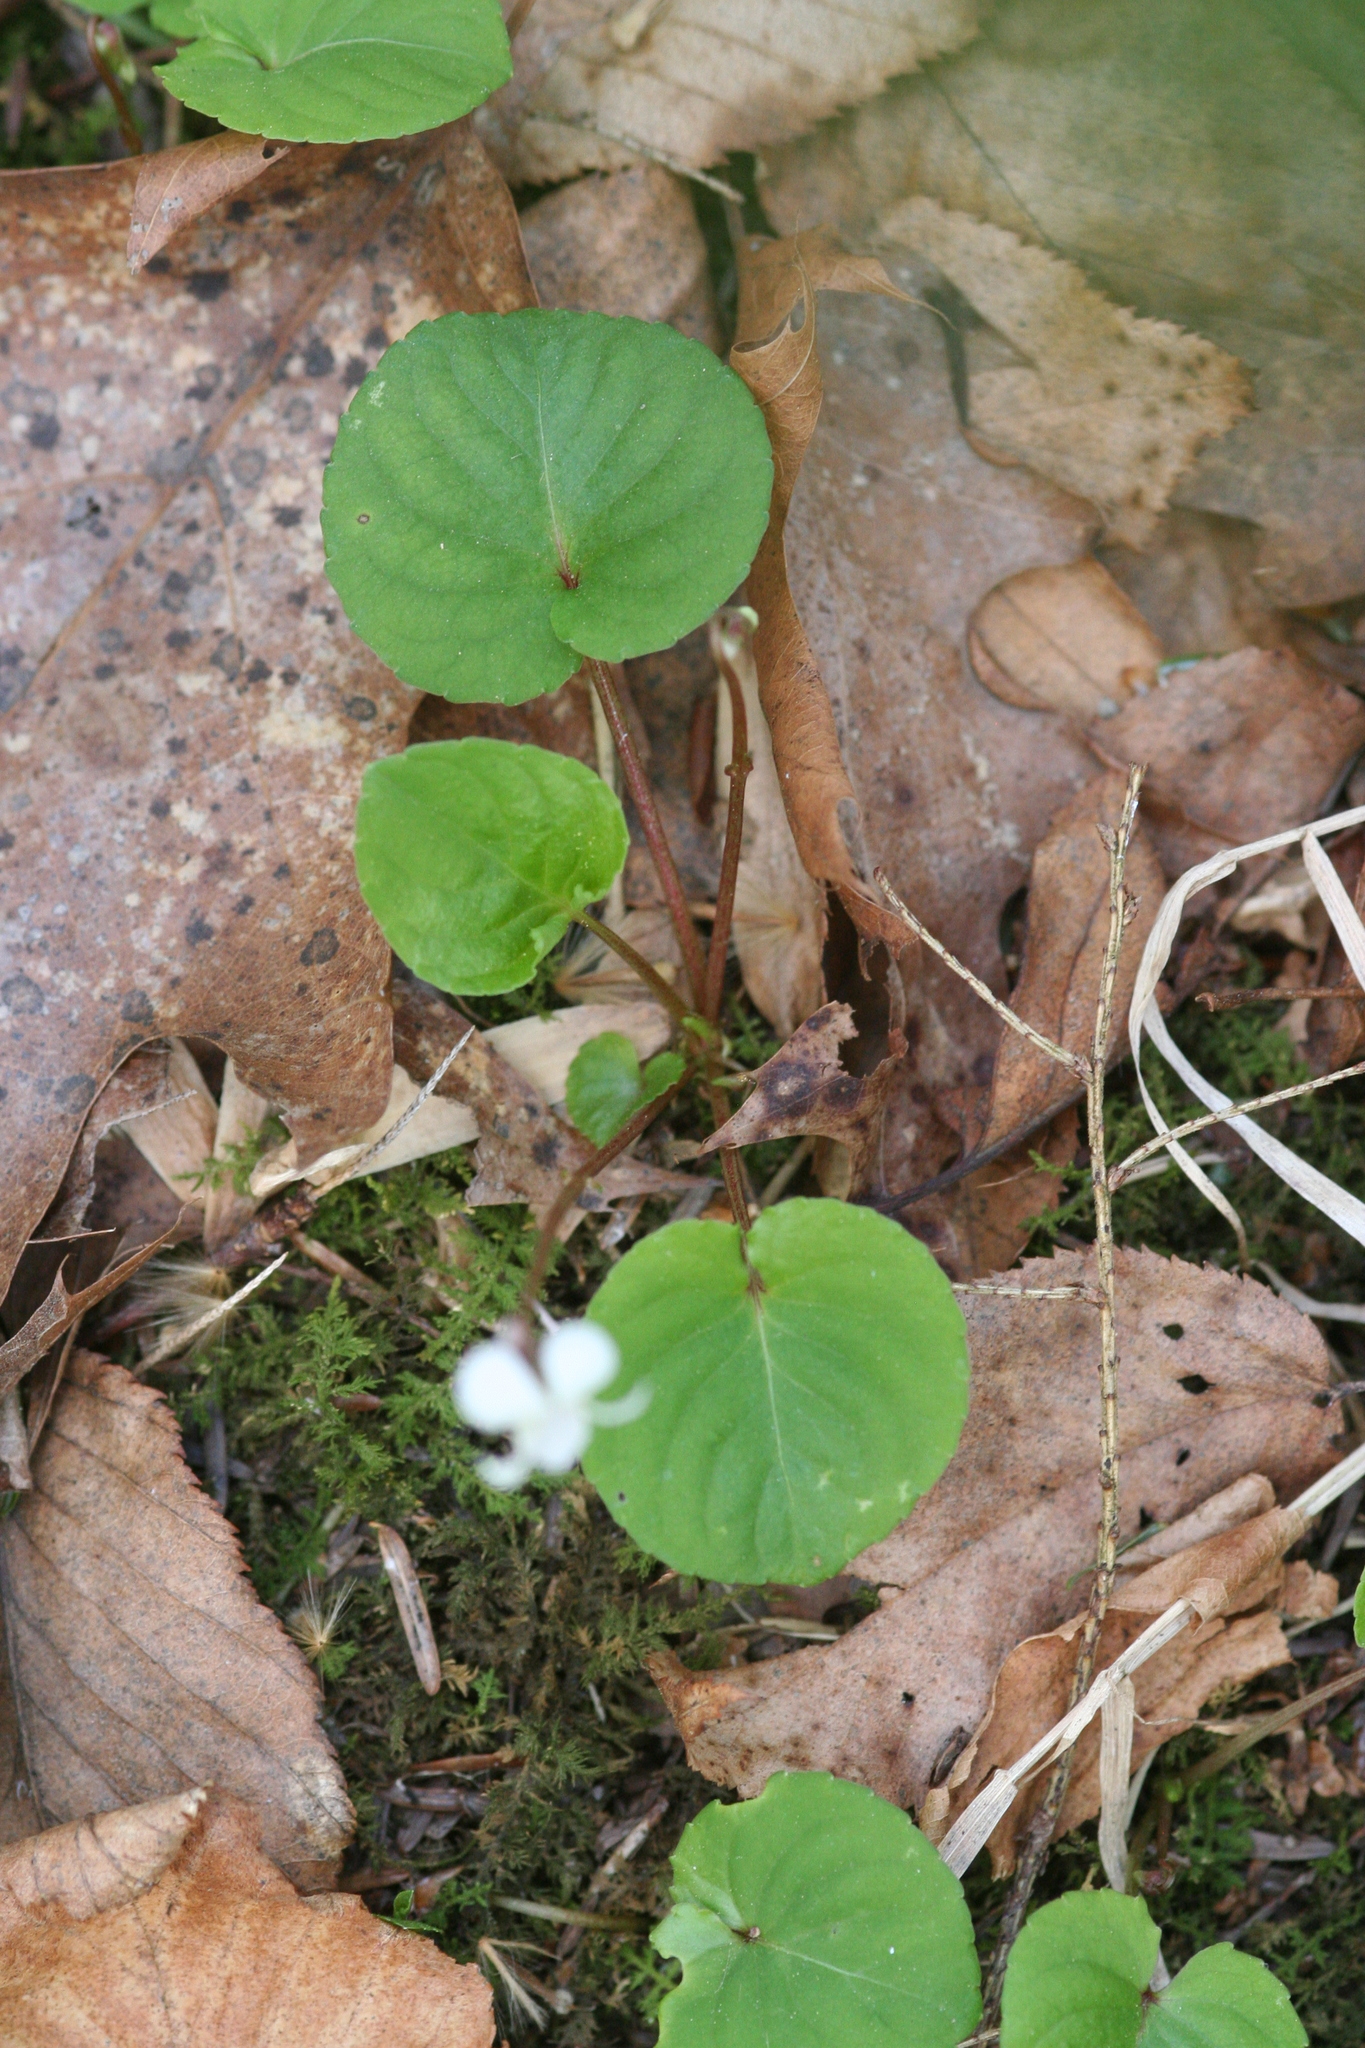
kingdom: Plantae
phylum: Tracheophyta
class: Magnoliopsida
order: Malpighiales
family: Violaceae
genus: Viola
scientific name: Viola blanda
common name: Sweet white violet
